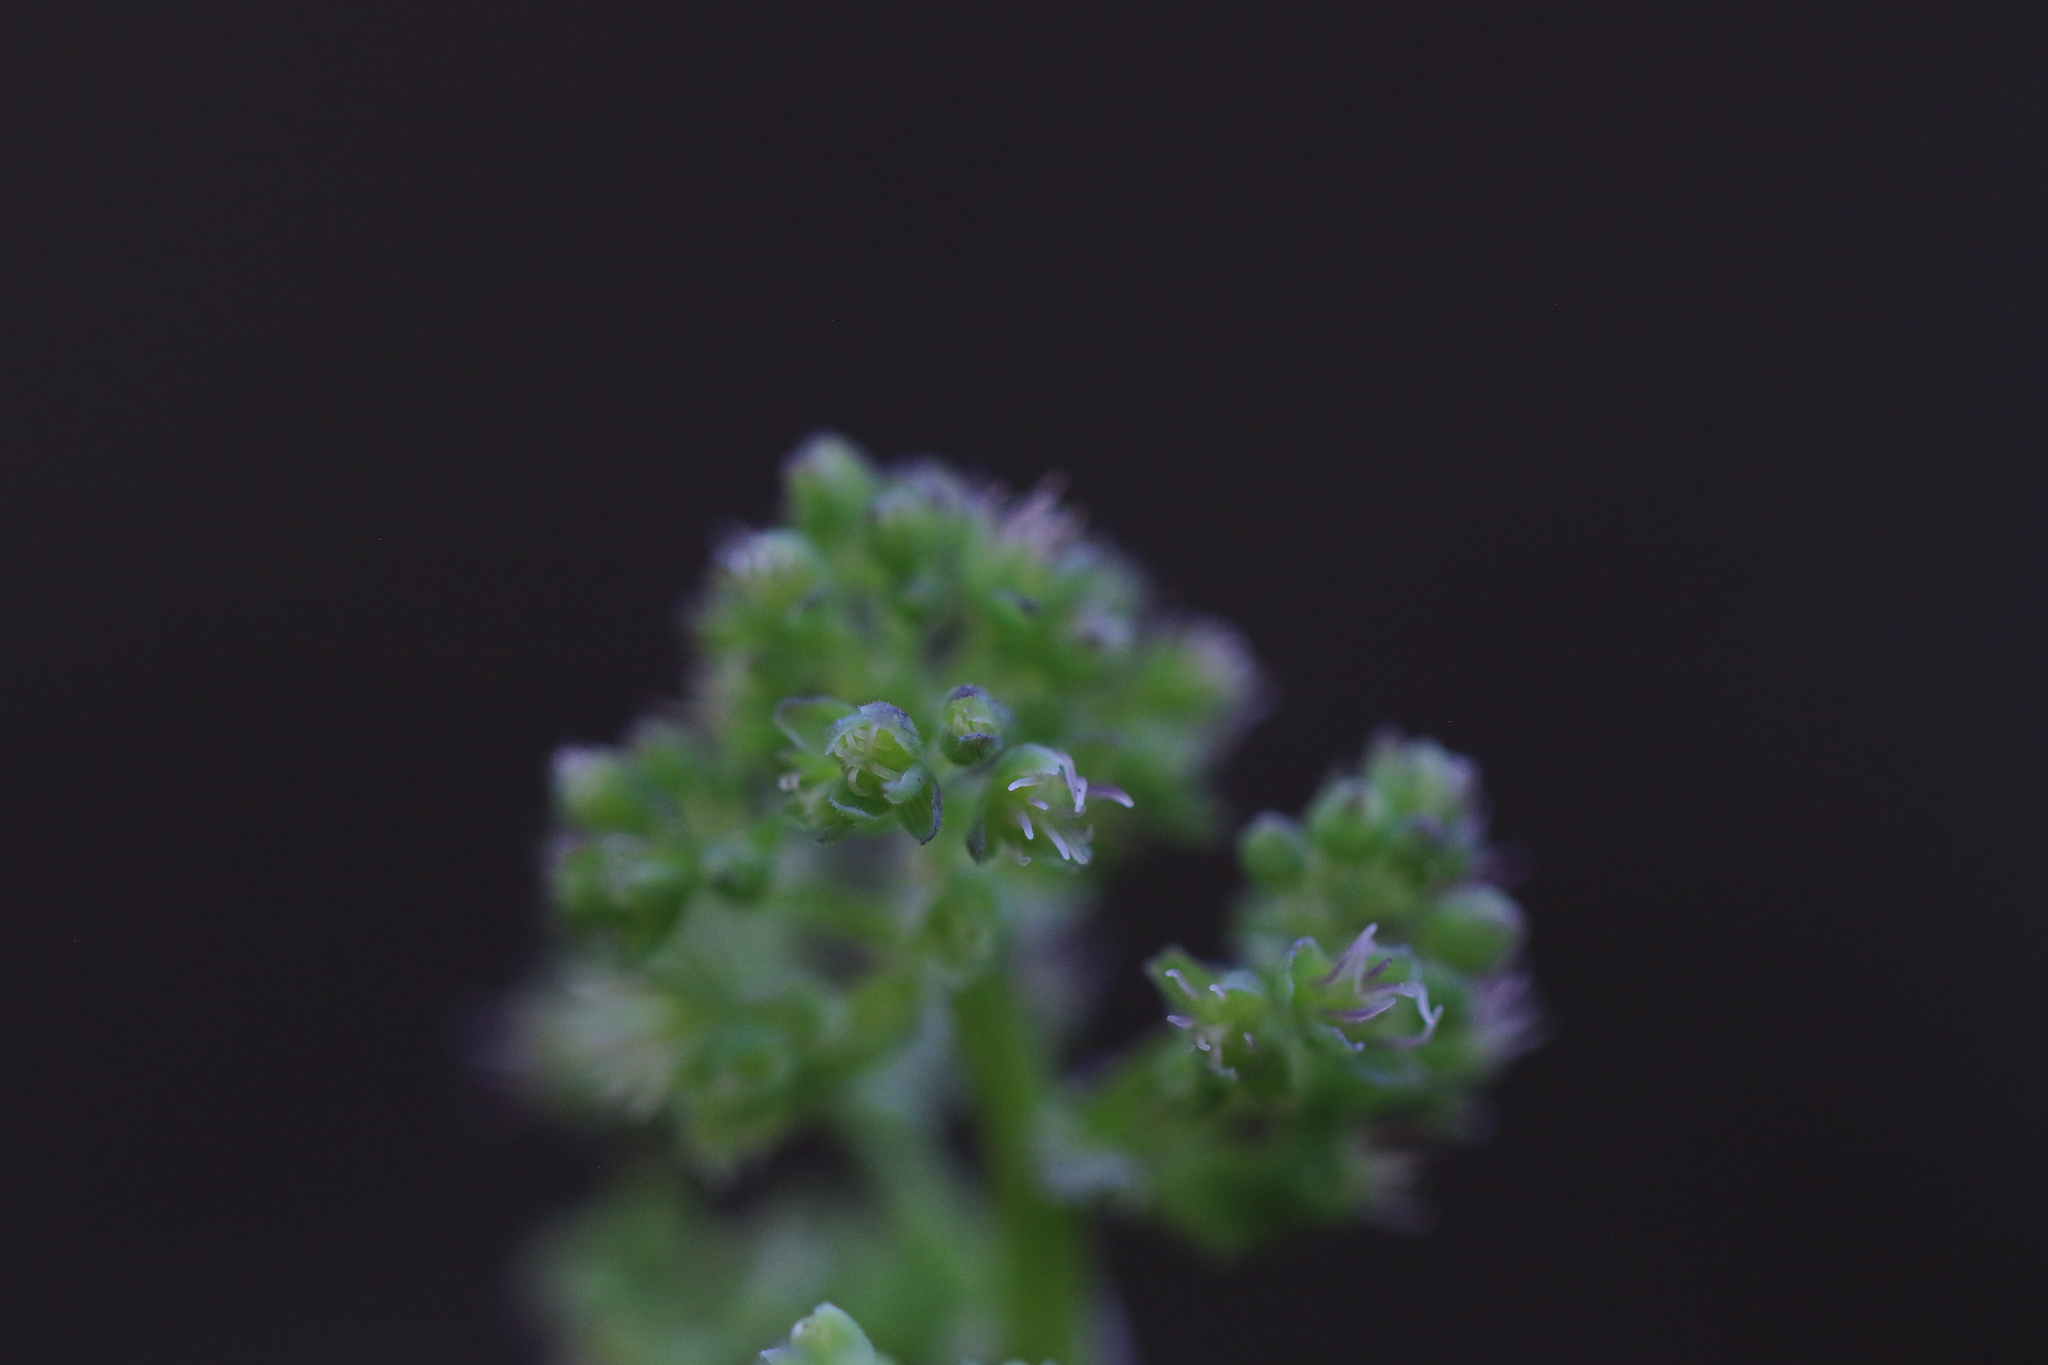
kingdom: Plantae
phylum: Tracheophyta
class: Magnoliopsida
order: Ranunculales
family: Ranunculaceae
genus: Thalictrum
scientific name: Thalictrum occidentale
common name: Western meadow-rue
